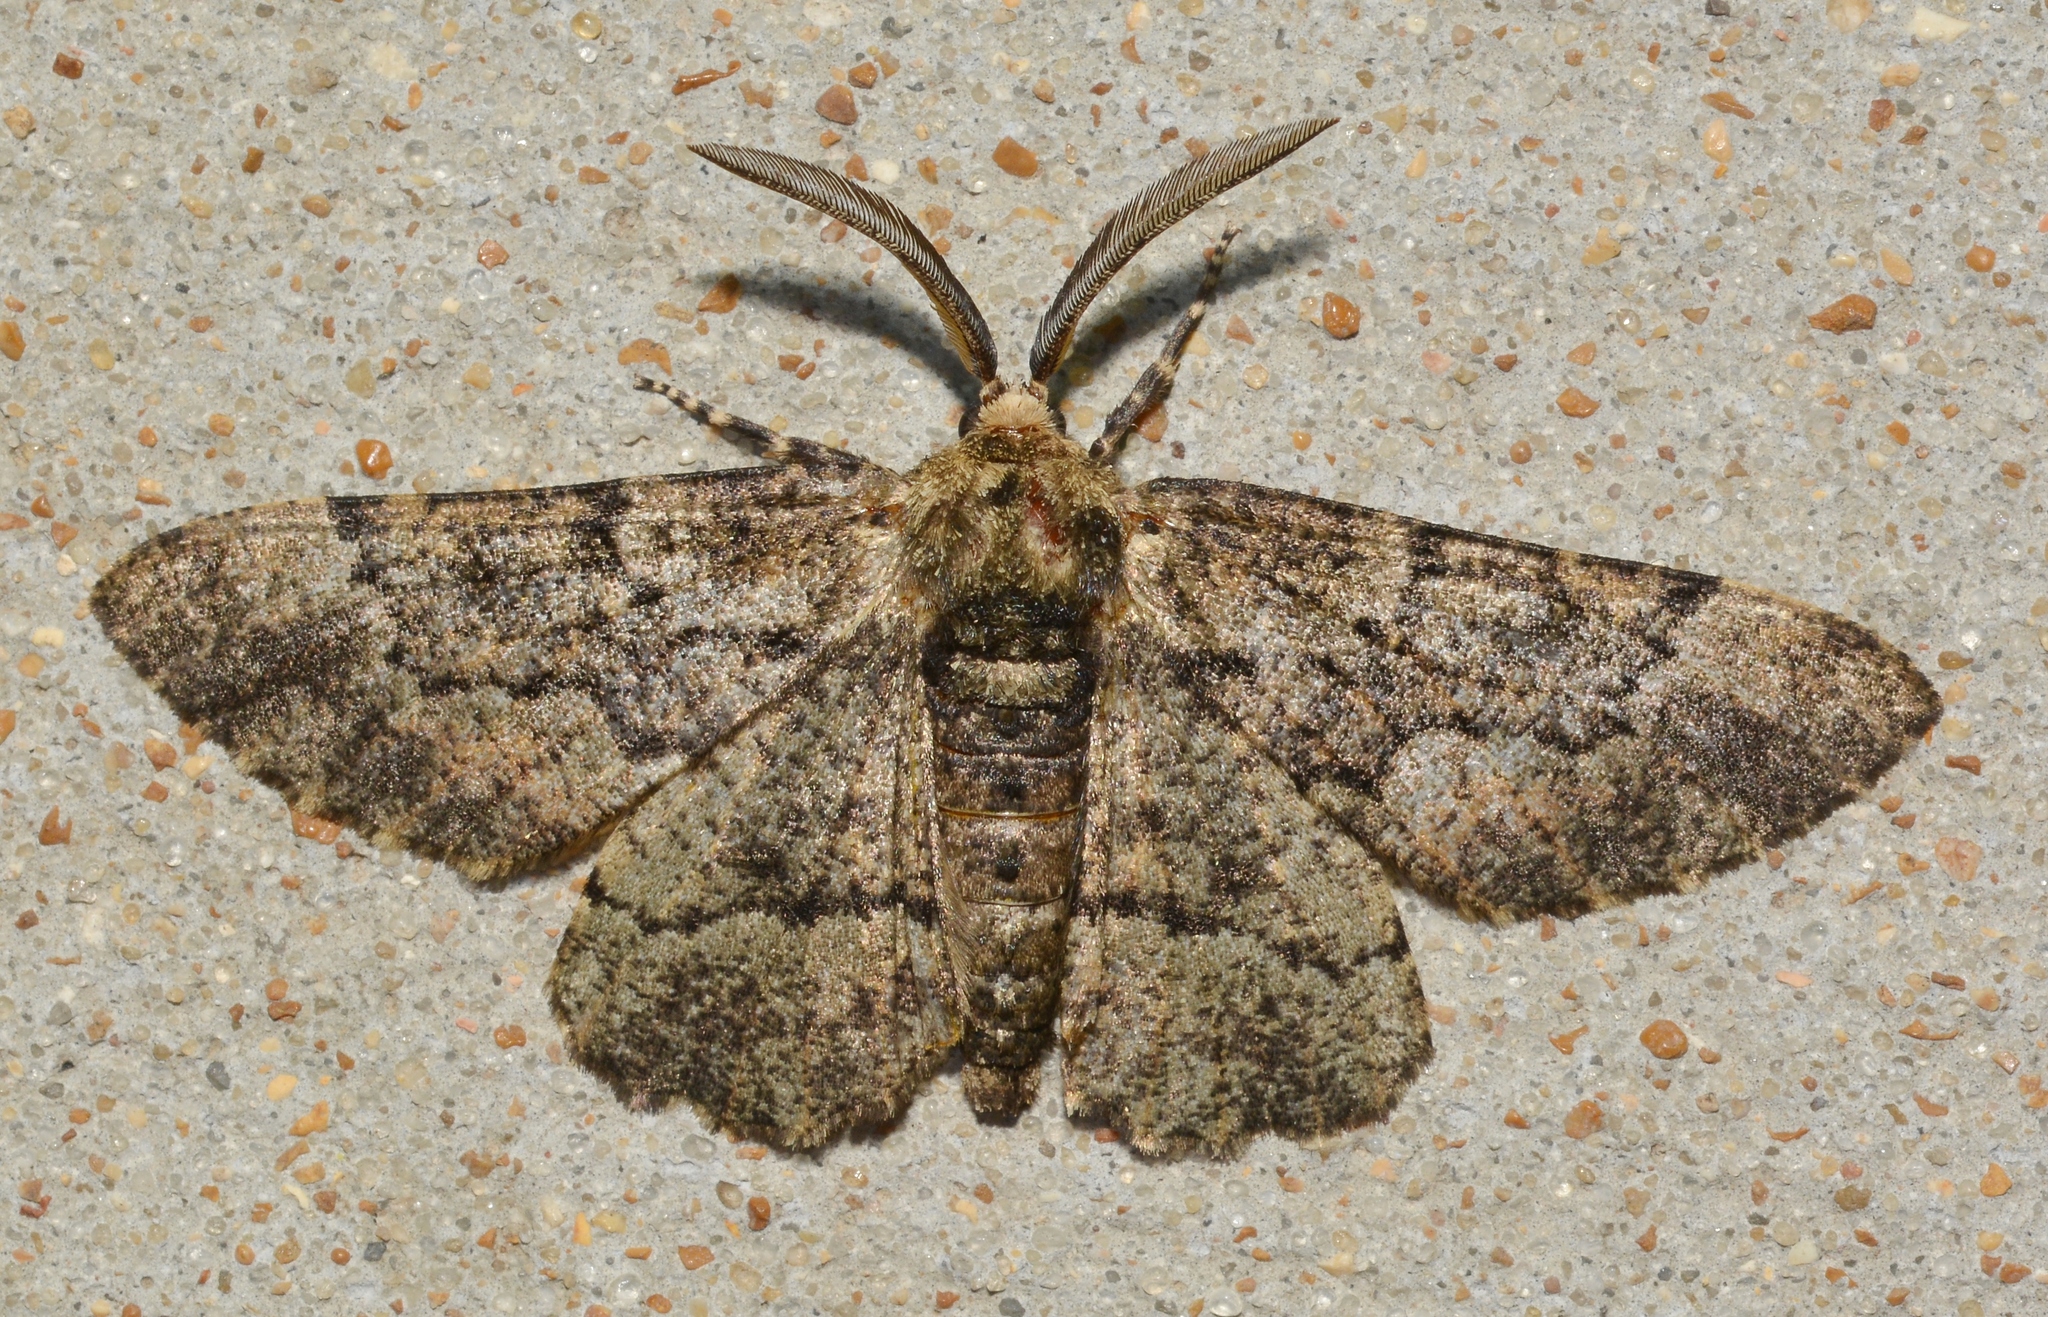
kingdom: Animalia
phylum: Arthropoda
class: Insecta
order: Lepidoptera
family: Geometridae
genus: Phaeoura
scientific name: Phaeoura quernaria
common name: Oak beauty
